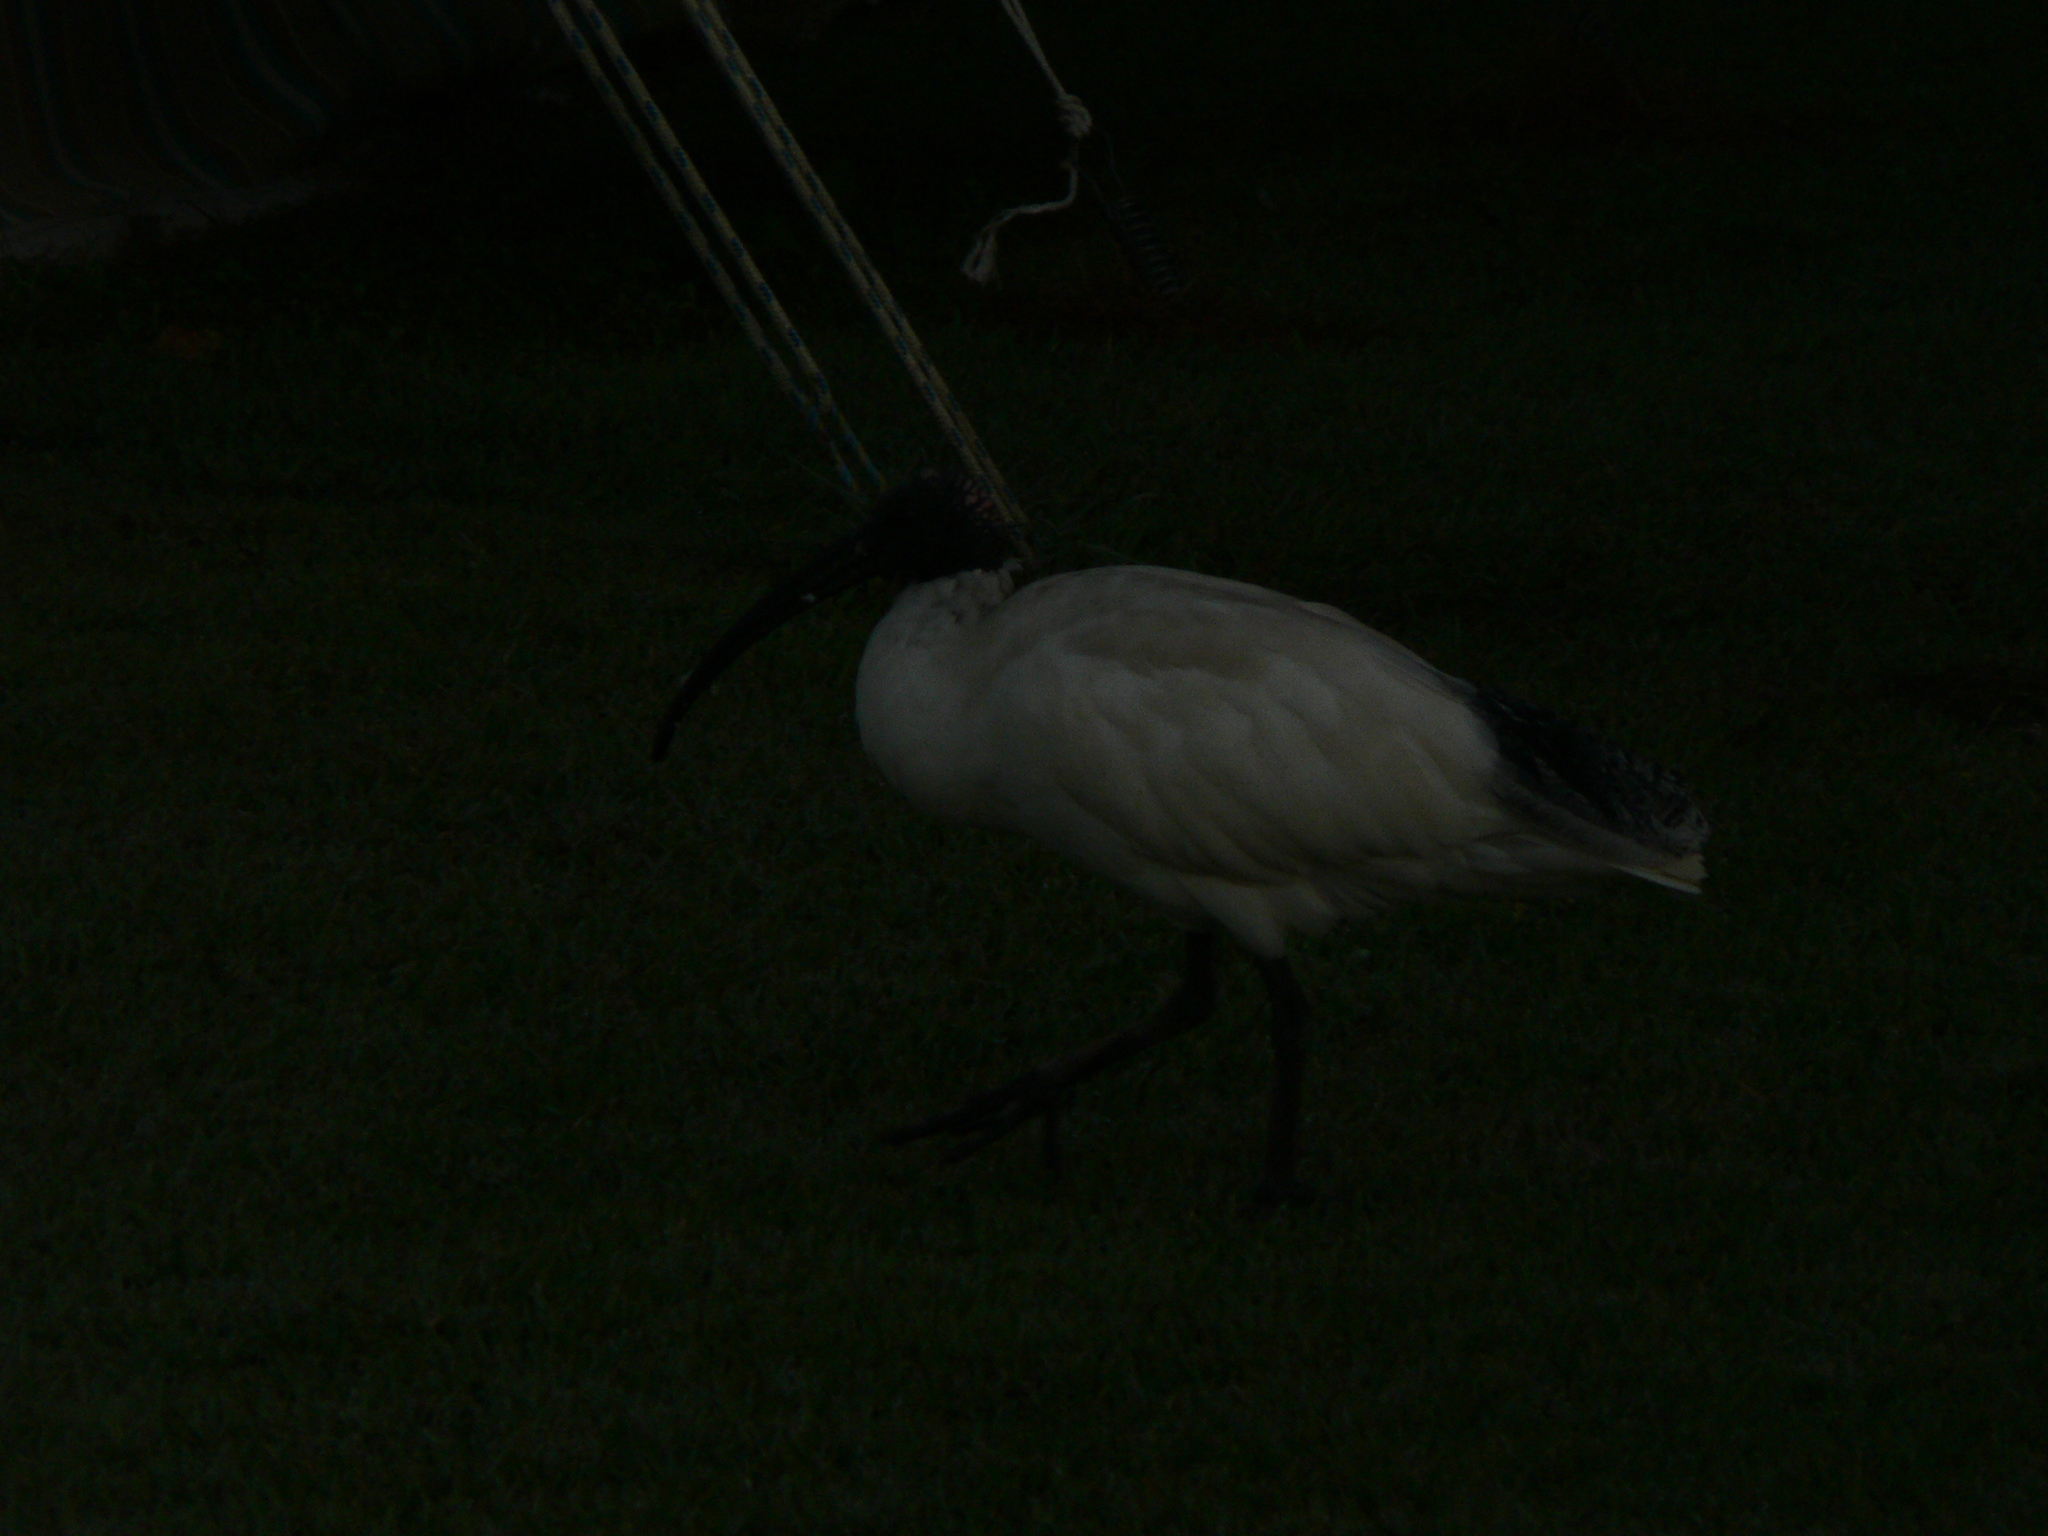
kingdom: Animalia
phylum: Chordata
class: Aves
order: Pelecaniformes
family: Threskiornithidae
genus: Threskiornis
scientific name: Threskiornis molucca
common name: Australian white ibis
